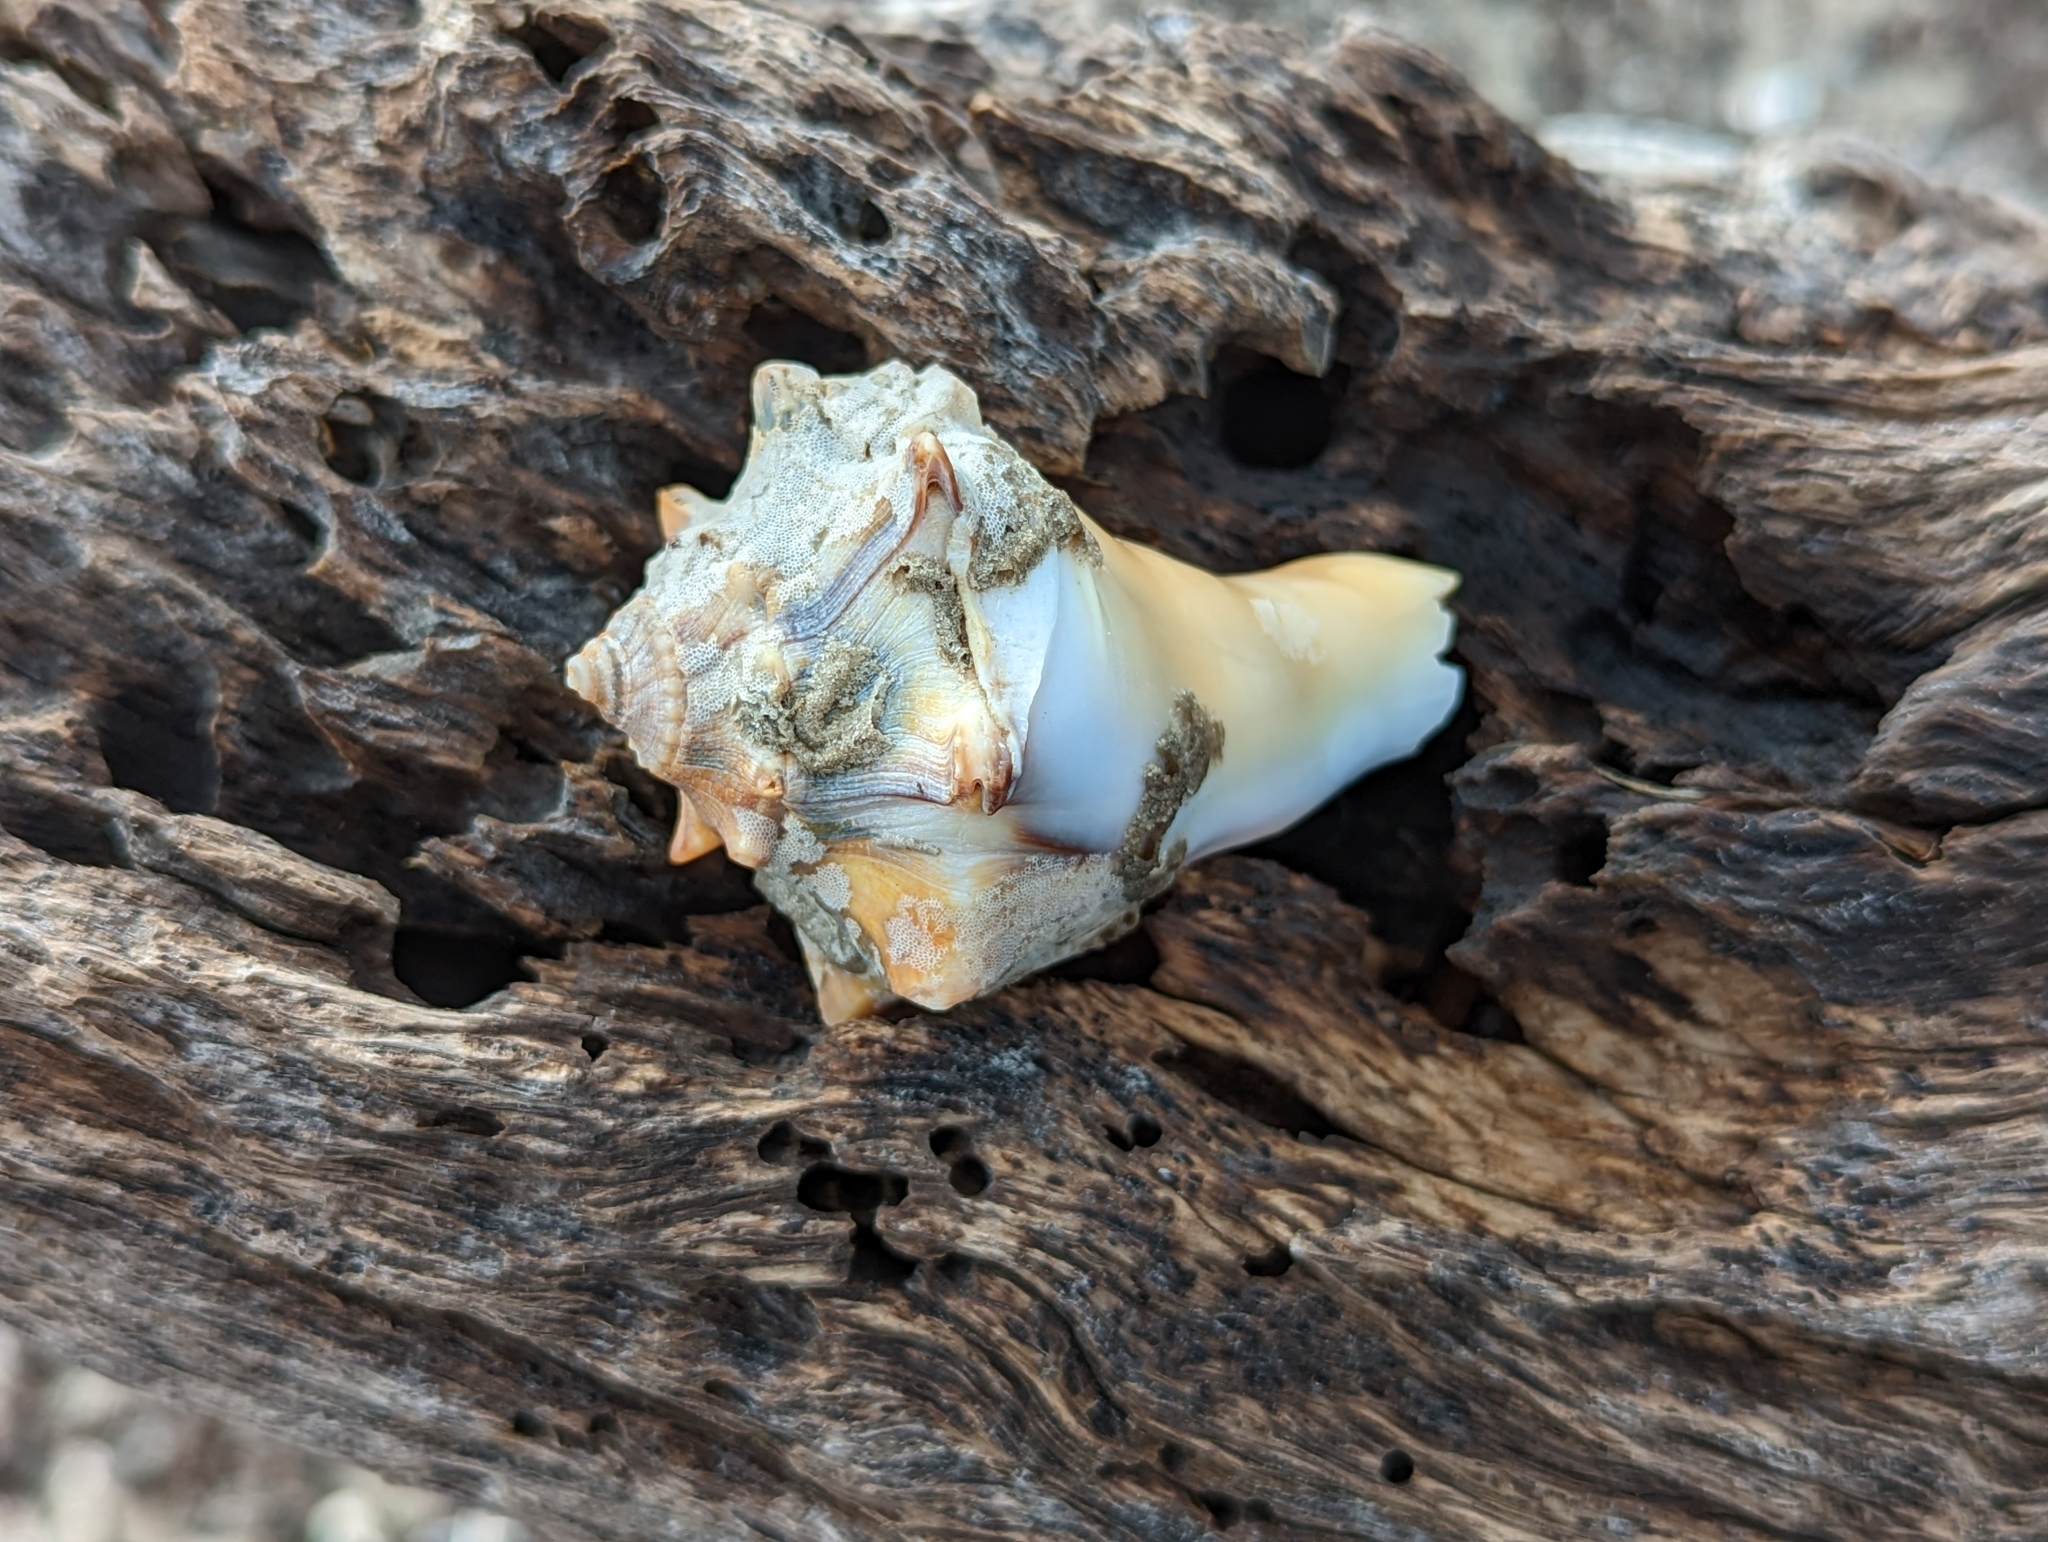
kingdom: Animalia
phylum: Mollusca
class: Gastropoda
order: Neogastropoda
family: Busyconidae
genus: Busycon
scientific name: Busycon carica
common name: Knobbed whelk
